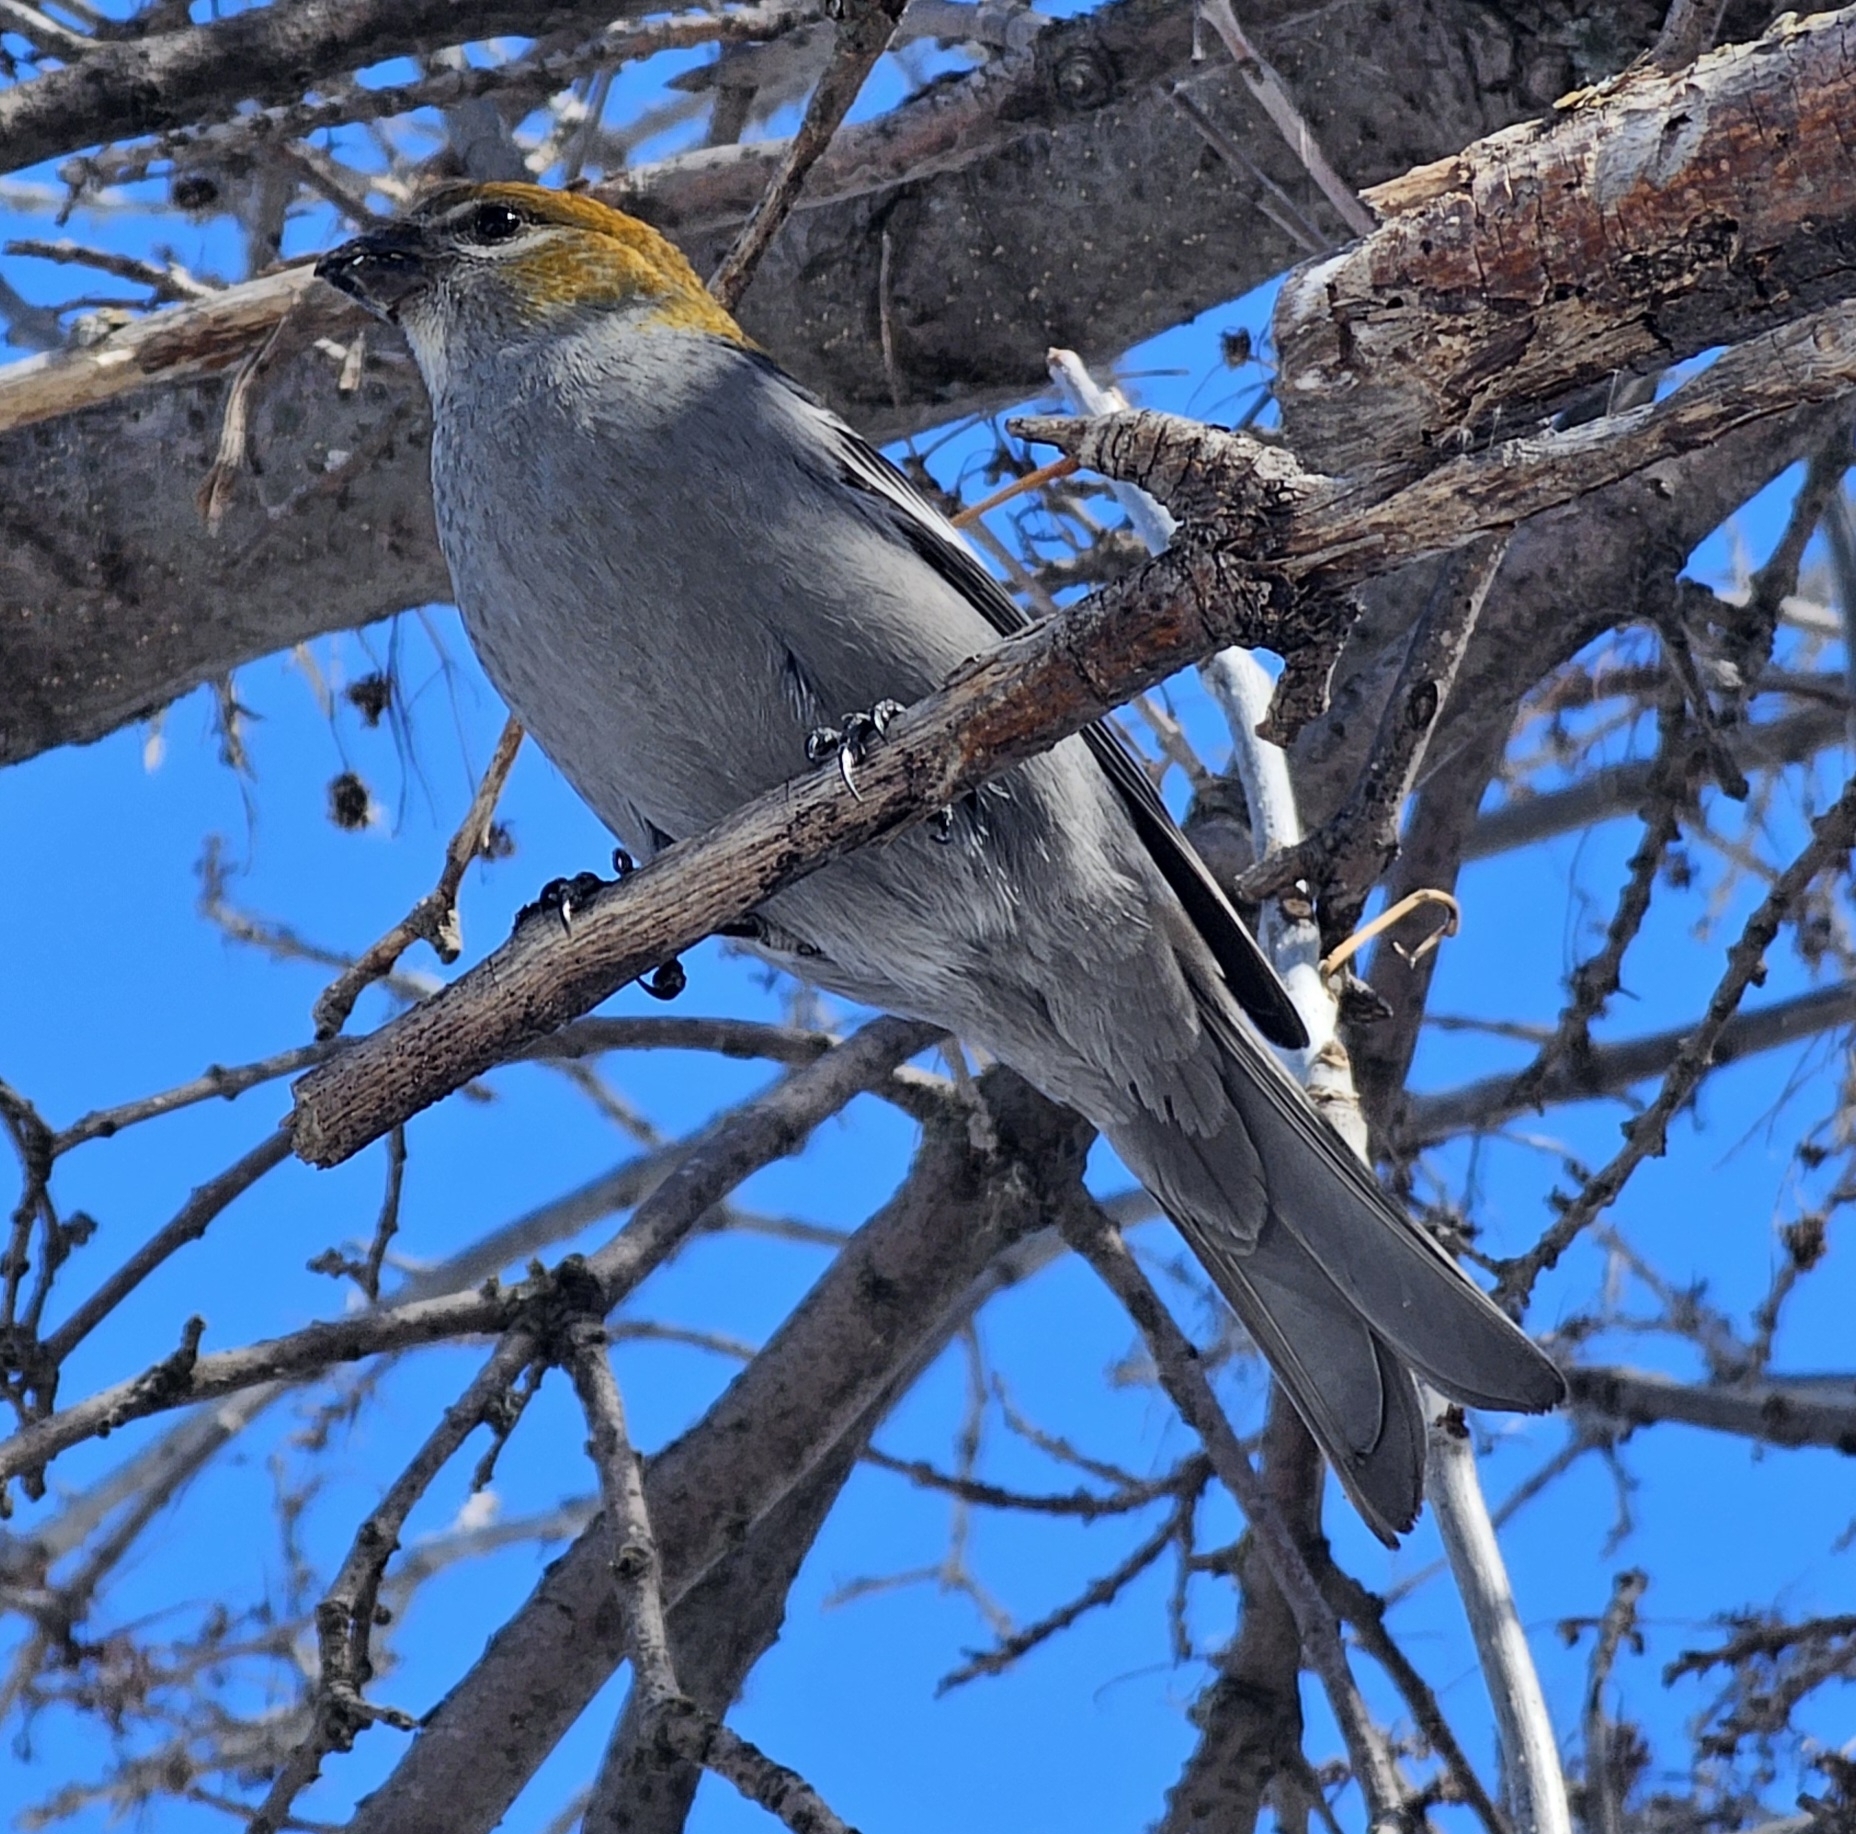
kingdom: Animalia
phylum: Chordata
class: Aves
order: Passeriformes
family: Fringillidae
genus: Pinicola
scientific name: Pinicola enucleator
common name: Pine grosbeak
